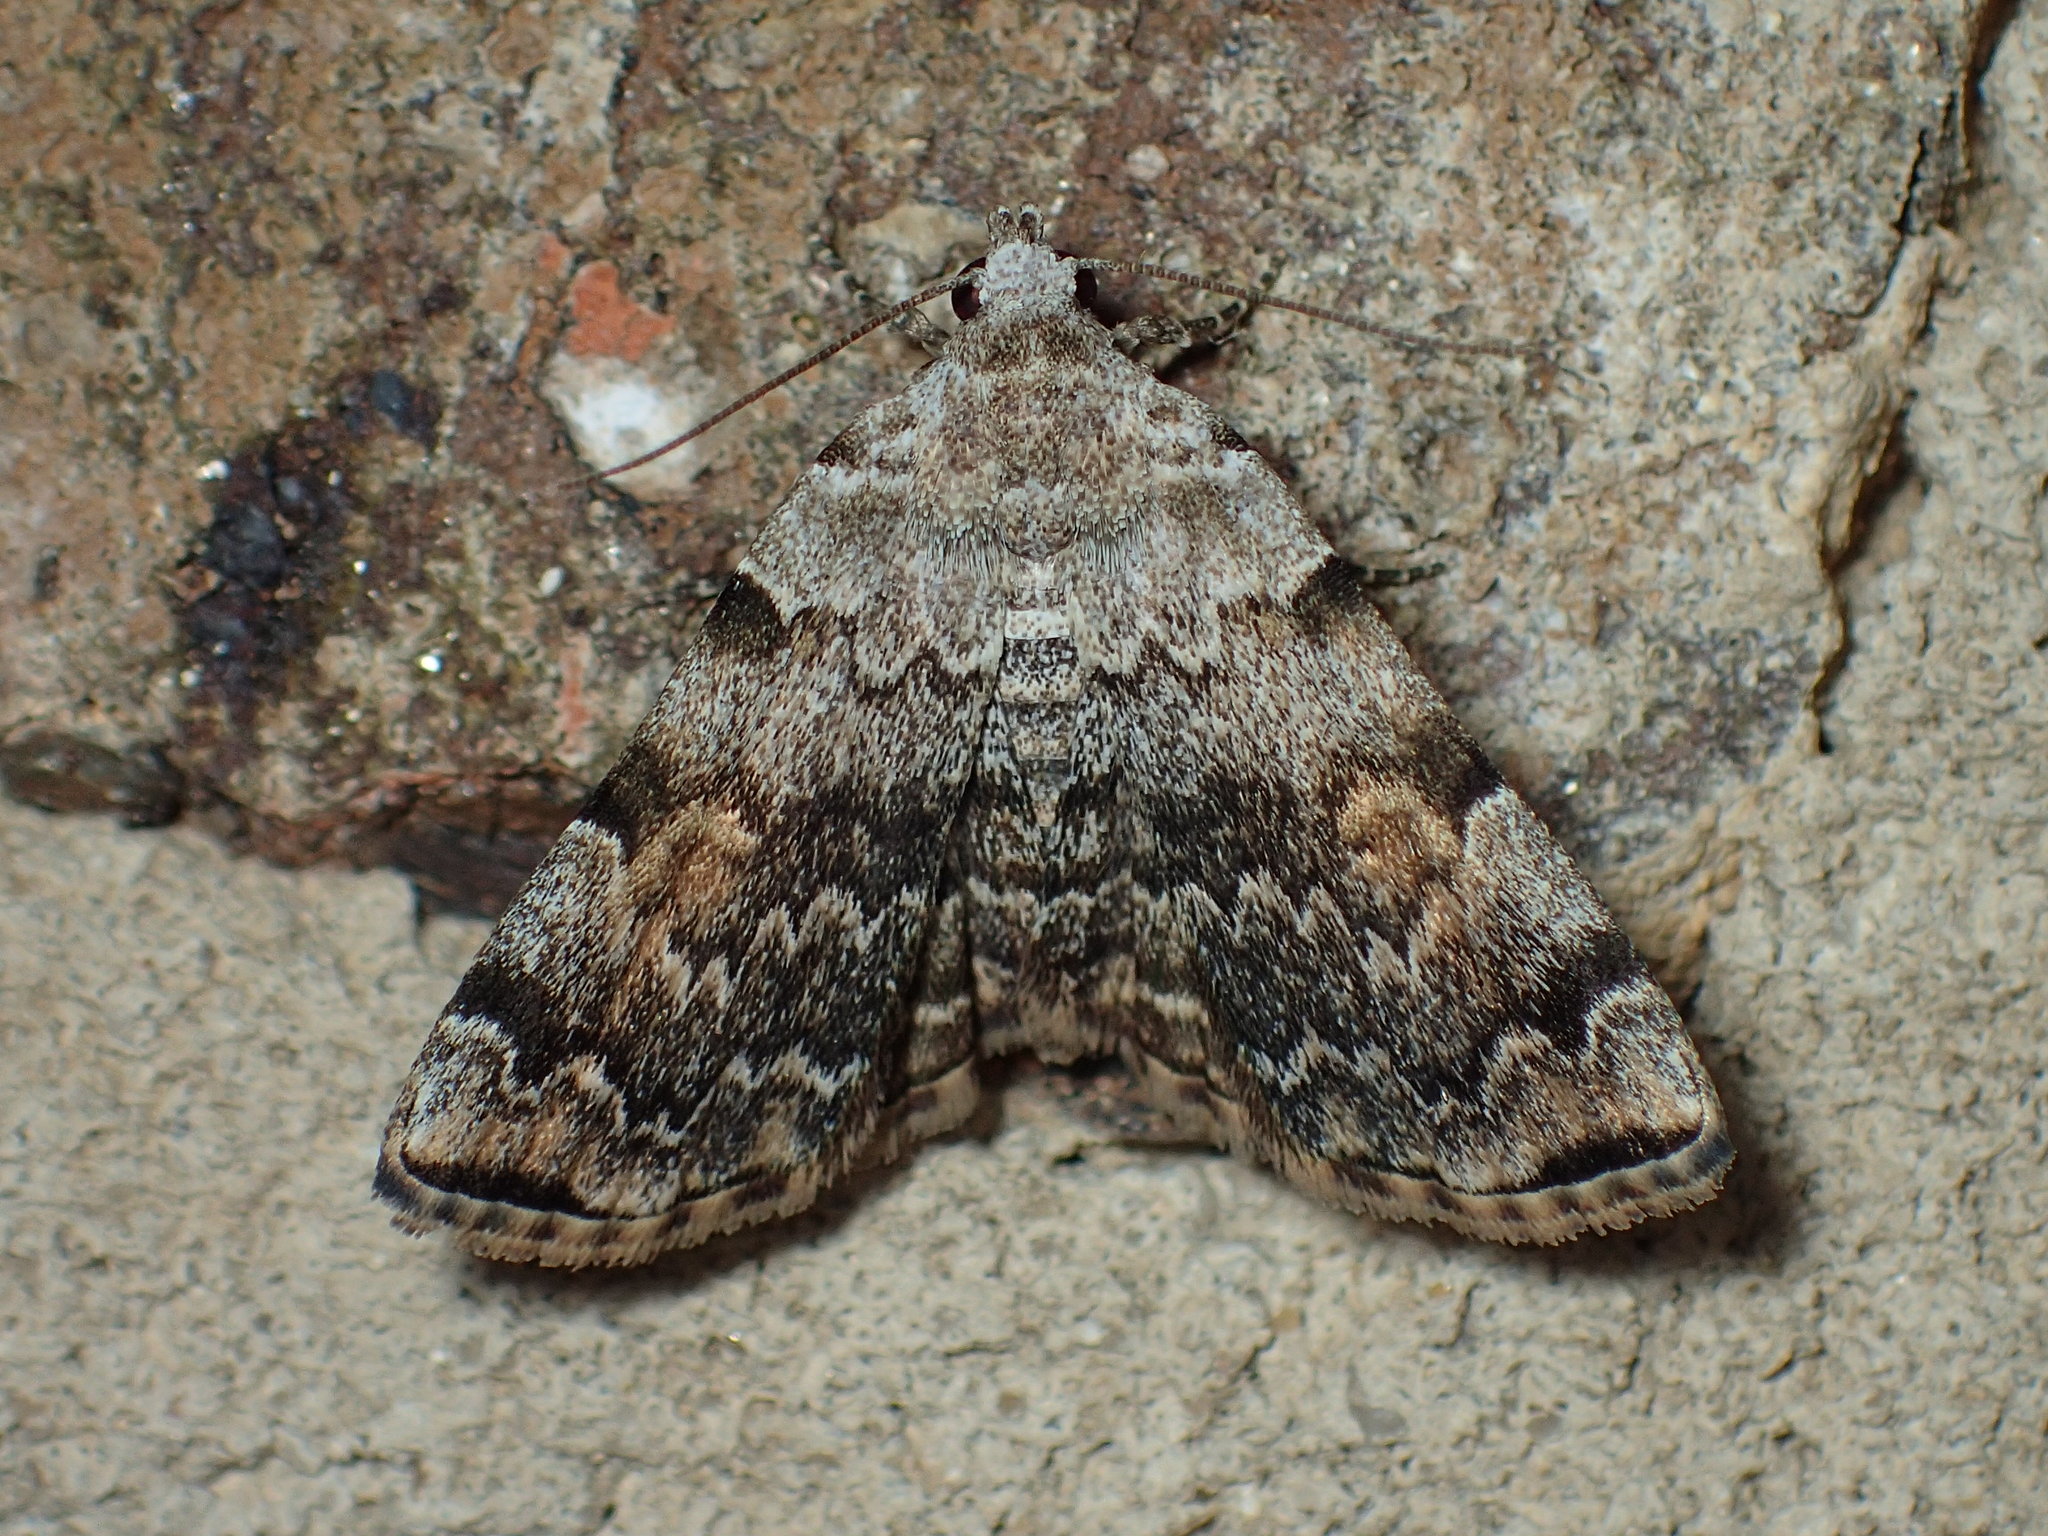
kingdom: Animalia
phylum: Arthropoda
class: Insecta
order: Lepidoptera
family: Erebidae
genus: Idia
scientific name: Idia americalis
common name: American idia moth
